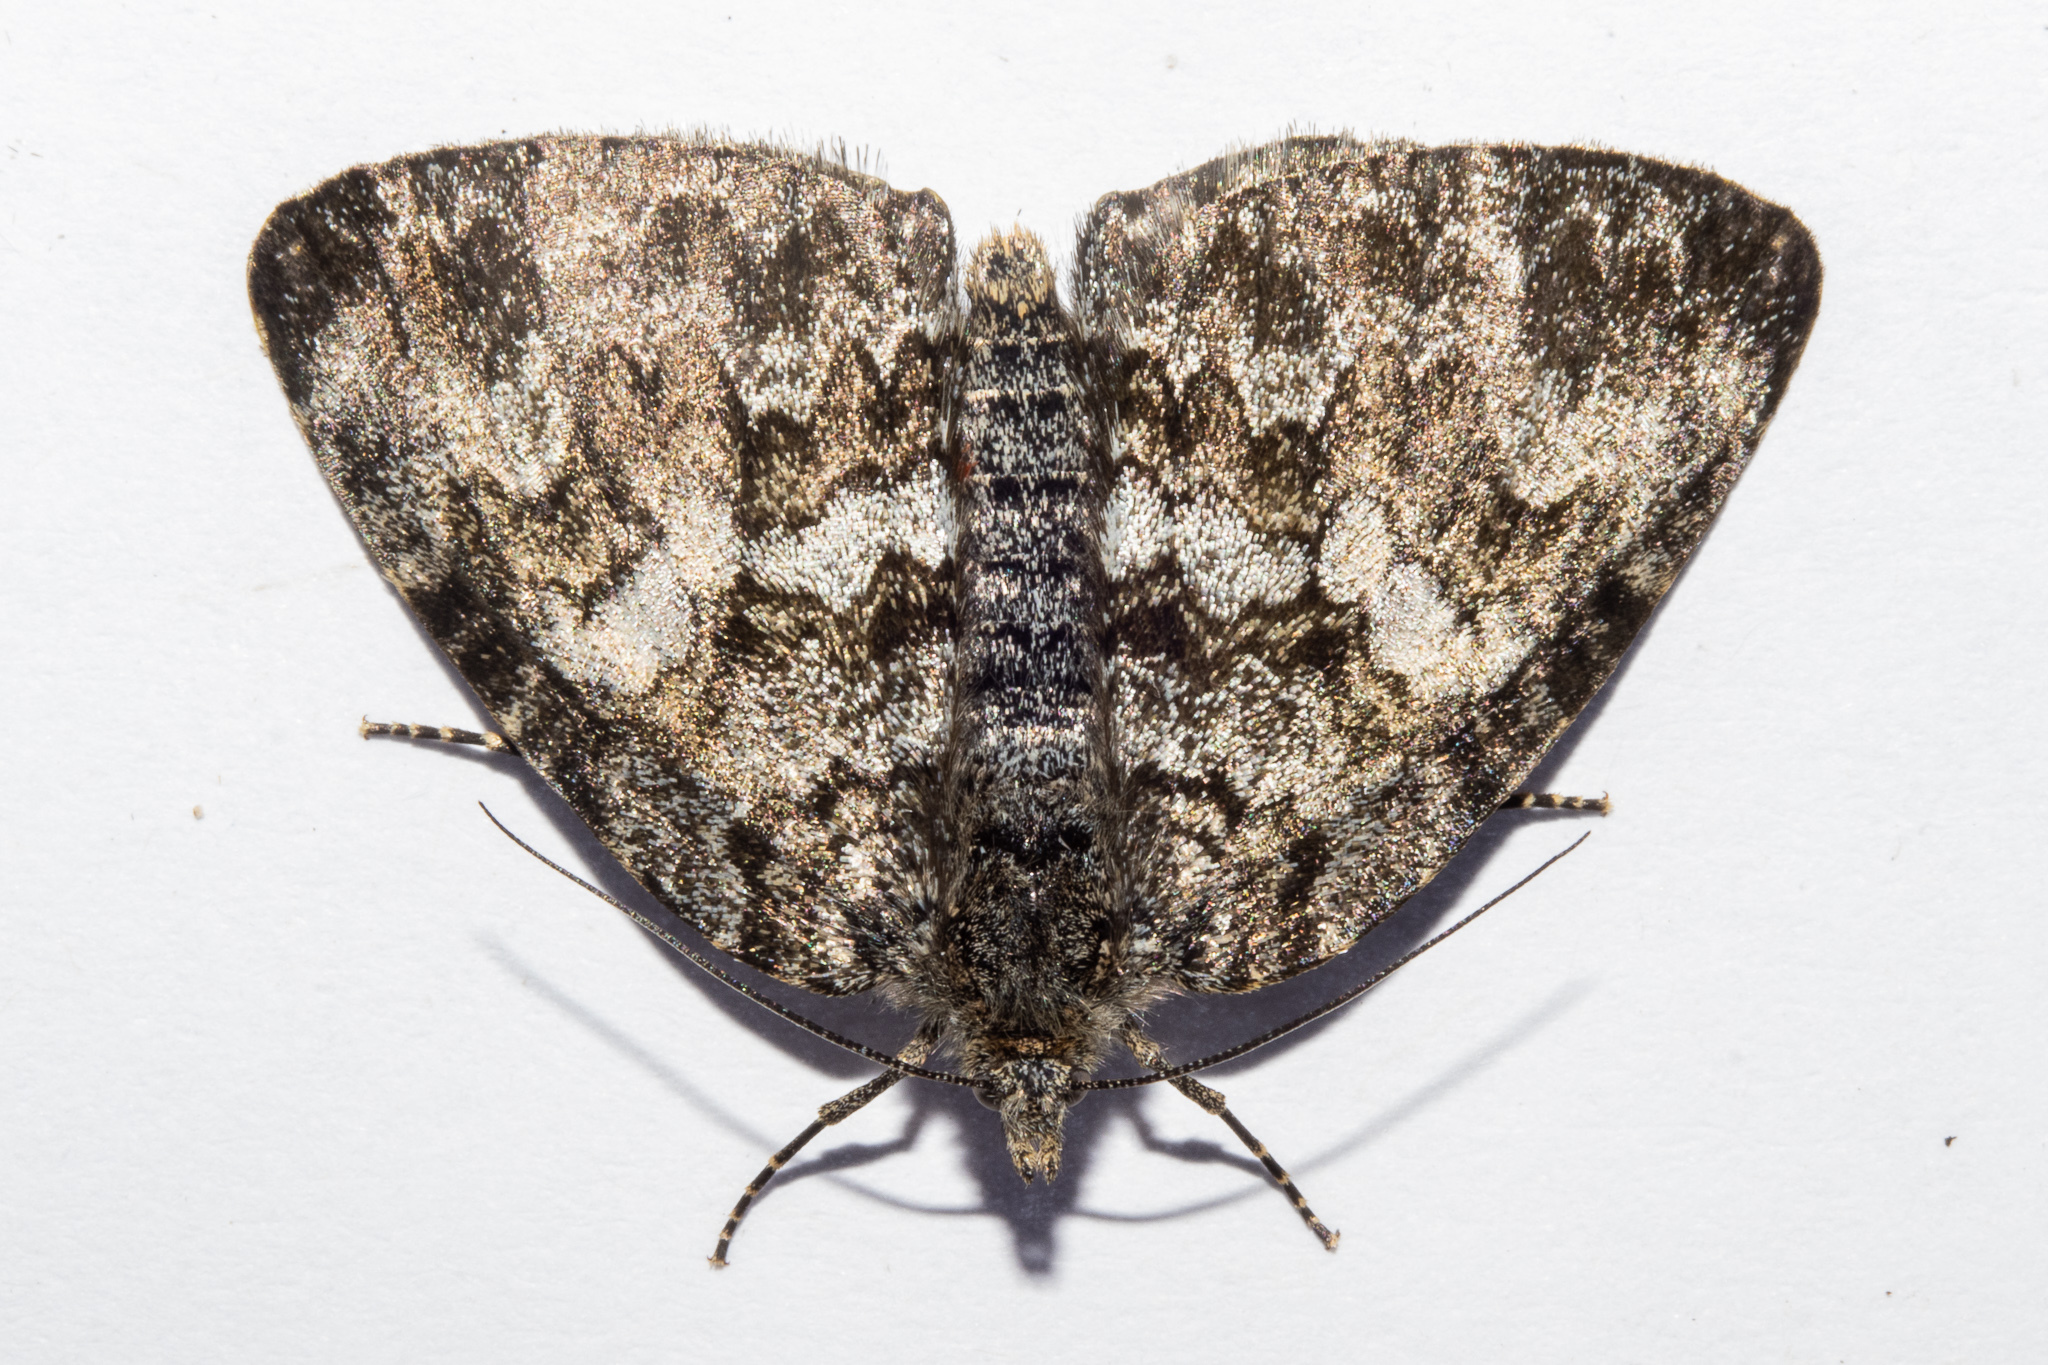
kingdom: Animalia
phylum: Arthropoda
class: Insecta
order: Lepidoptera
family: Geometridae
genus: Dasyuris
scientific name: Dasyuris hectori
